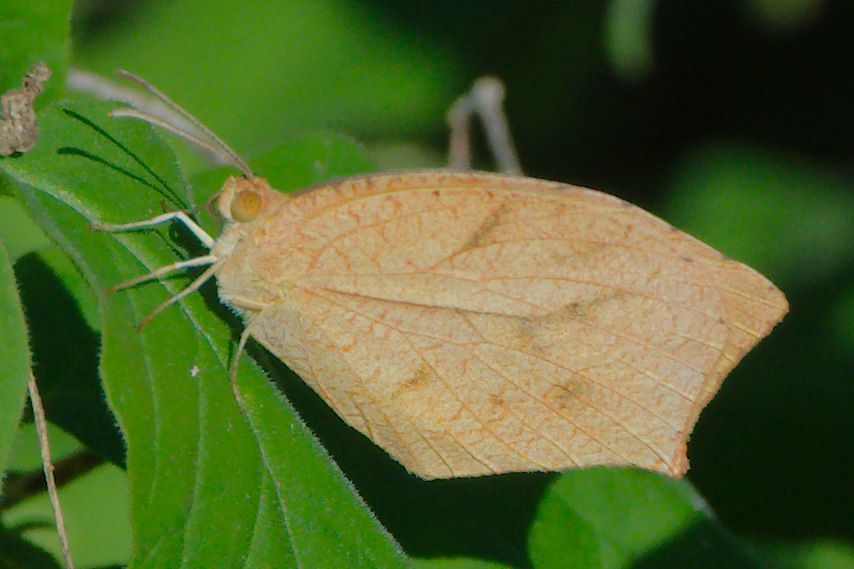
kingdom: Animalia
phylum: Arthropoda
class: Insecta
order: Lepidoptera
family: Pieridae
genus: Pyrisitia
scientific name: Pyrisitia proterpia
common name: Tailed orange
